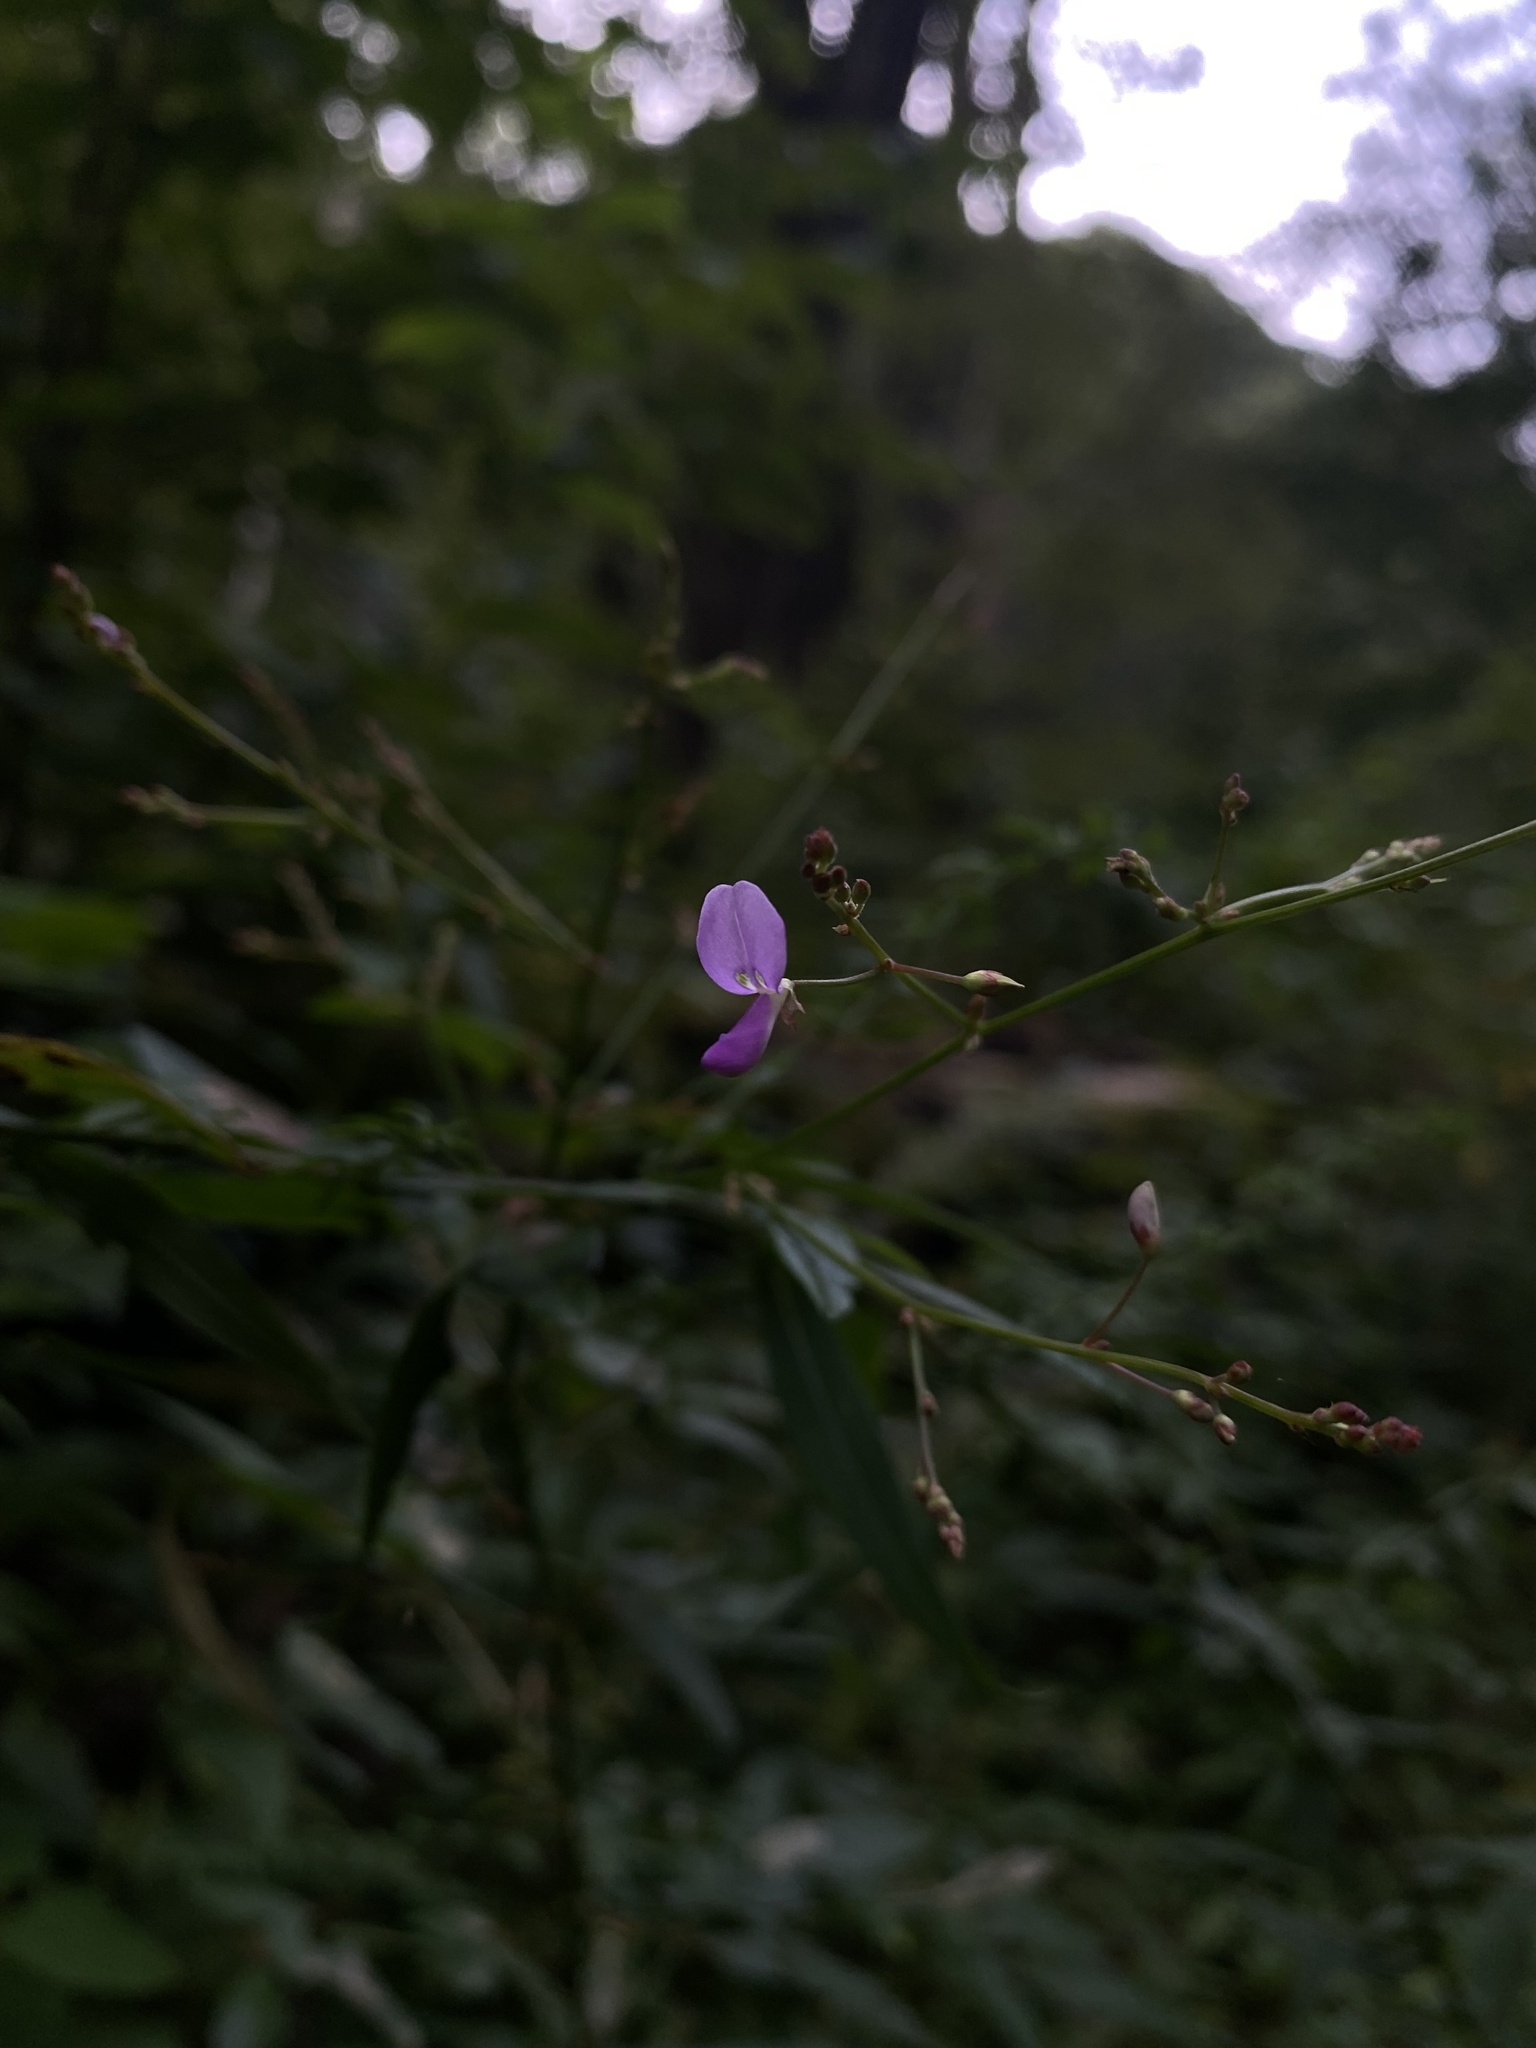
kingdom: Plantae
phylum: Tracheophyta
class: Magnoliopsida
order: Fabales
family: Fabaceae
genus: Desmodium
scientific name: Desmodium
